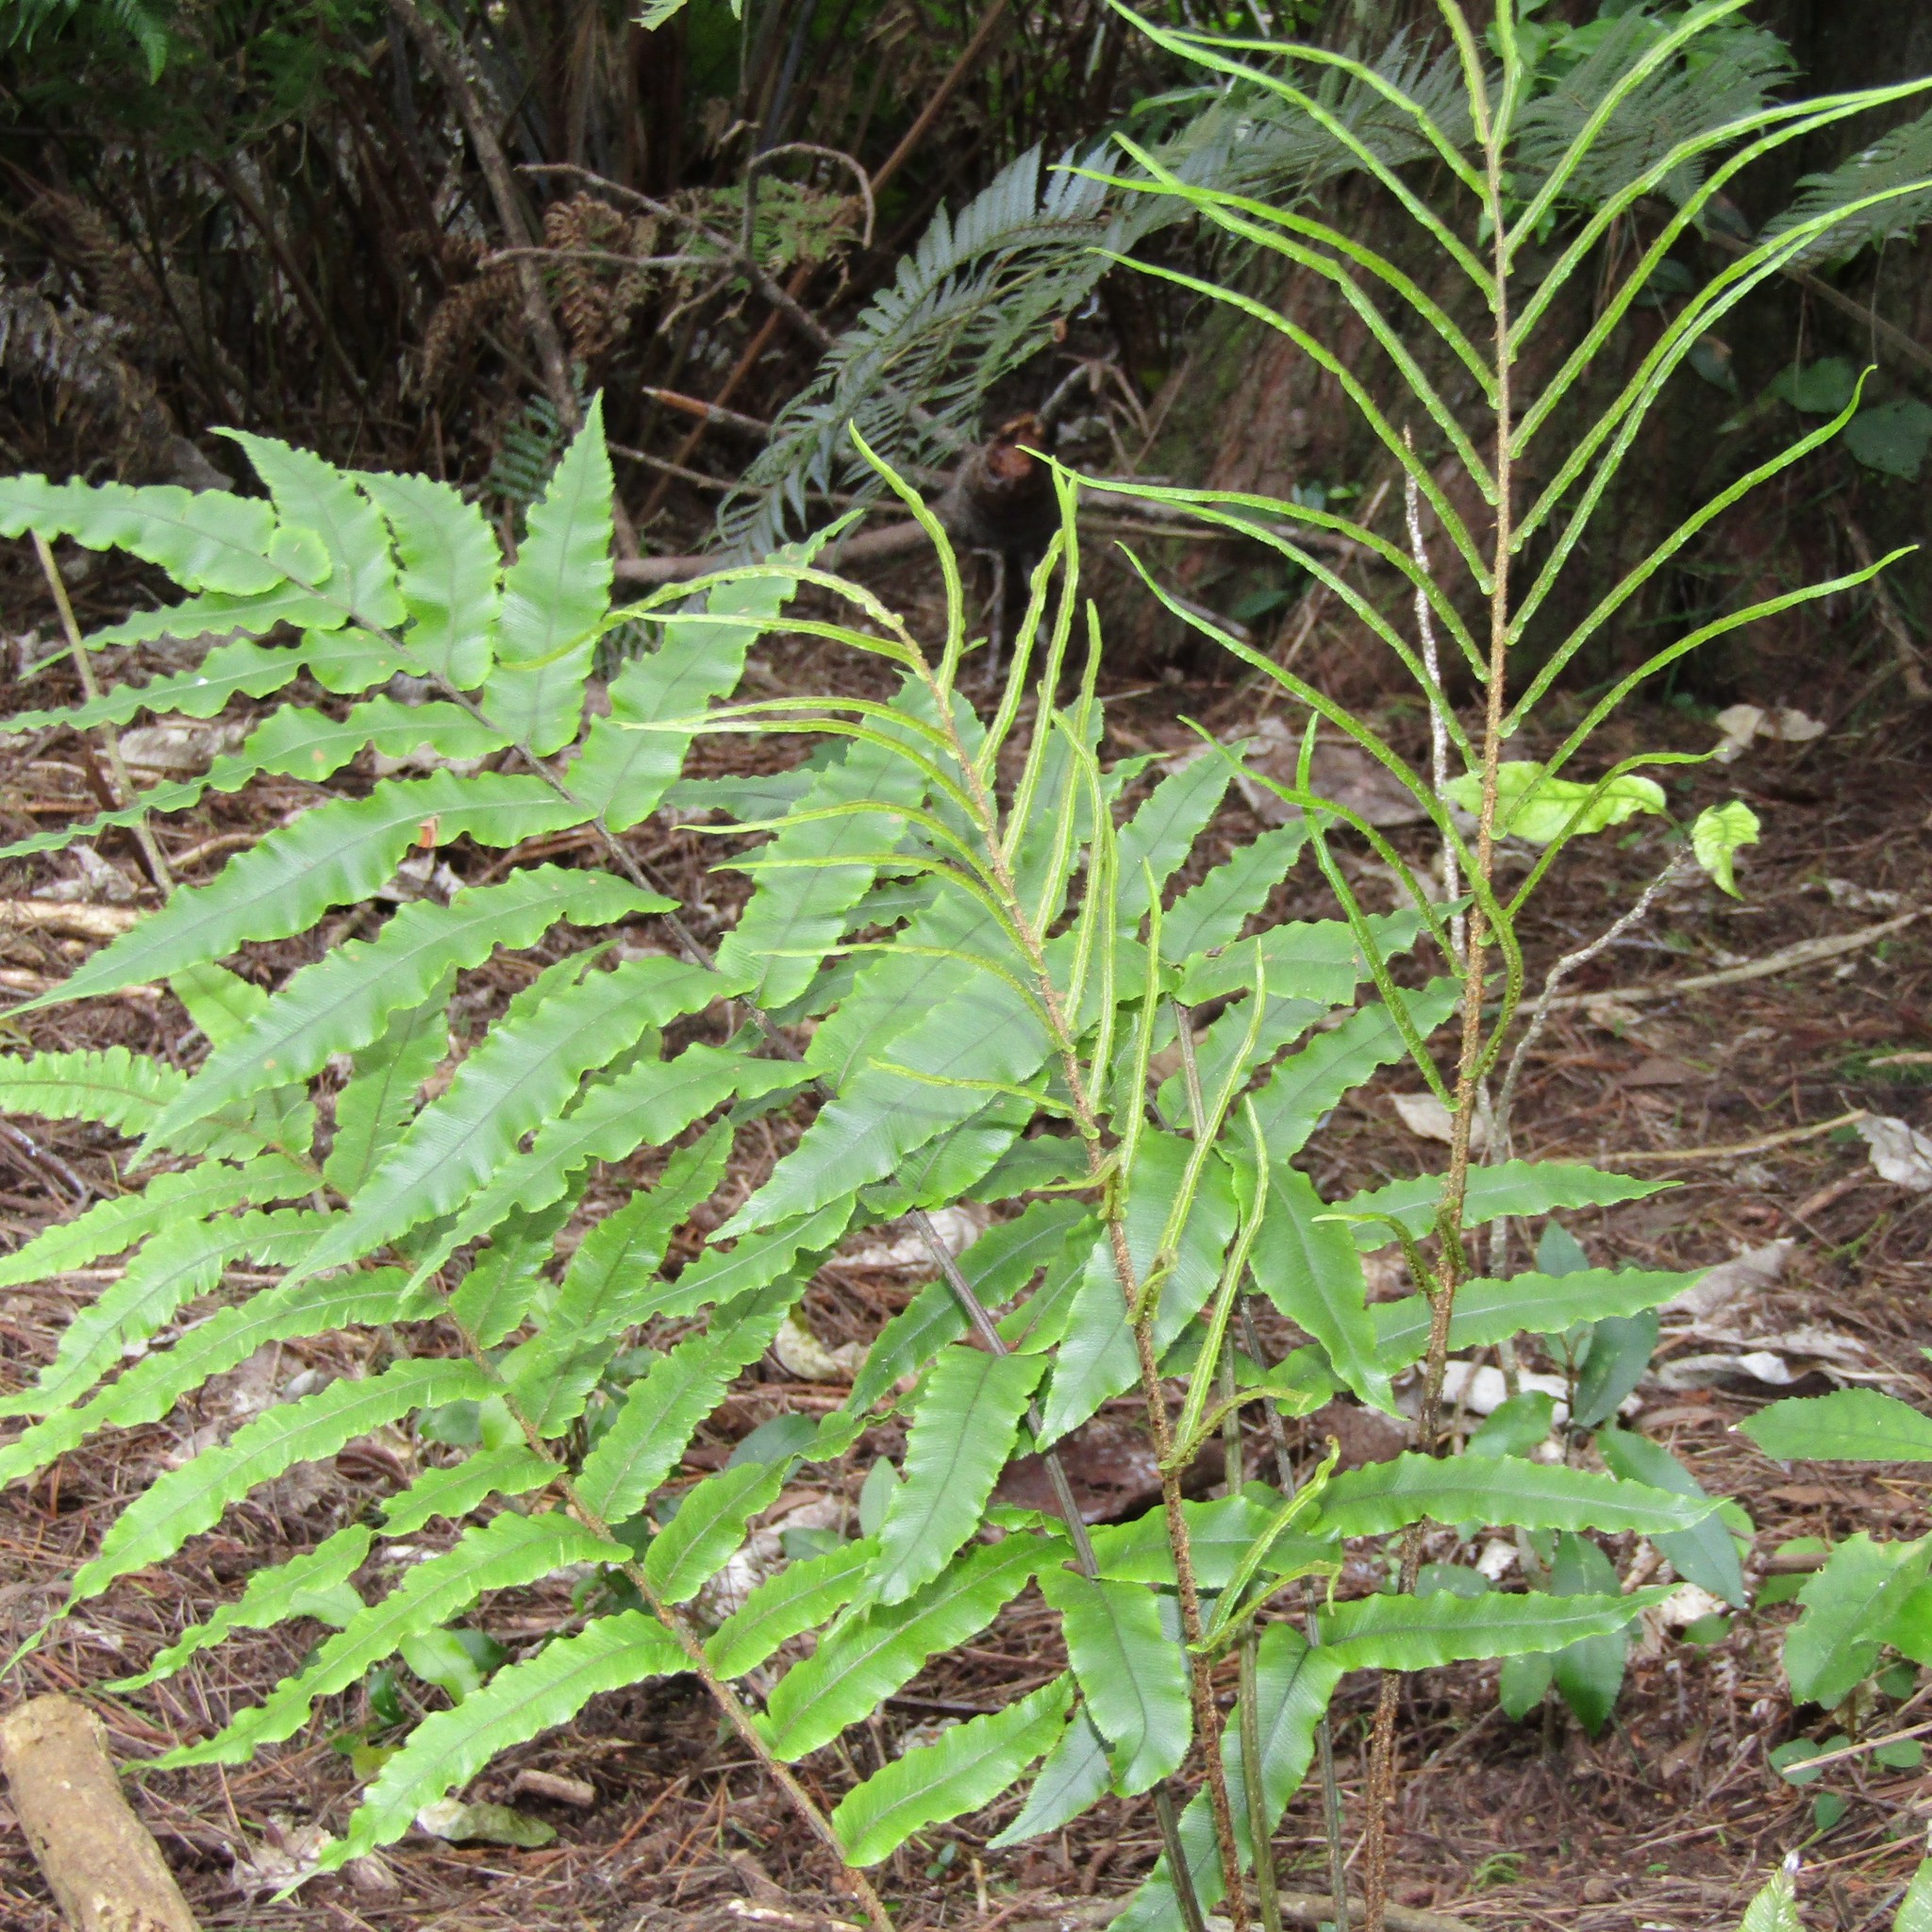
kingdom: Plantae
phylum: Tracheophyta
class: Polypodiopsida
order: Polypodiales
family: Blechnaceae
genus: Parablechnum
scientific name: Parablechnum procerum
